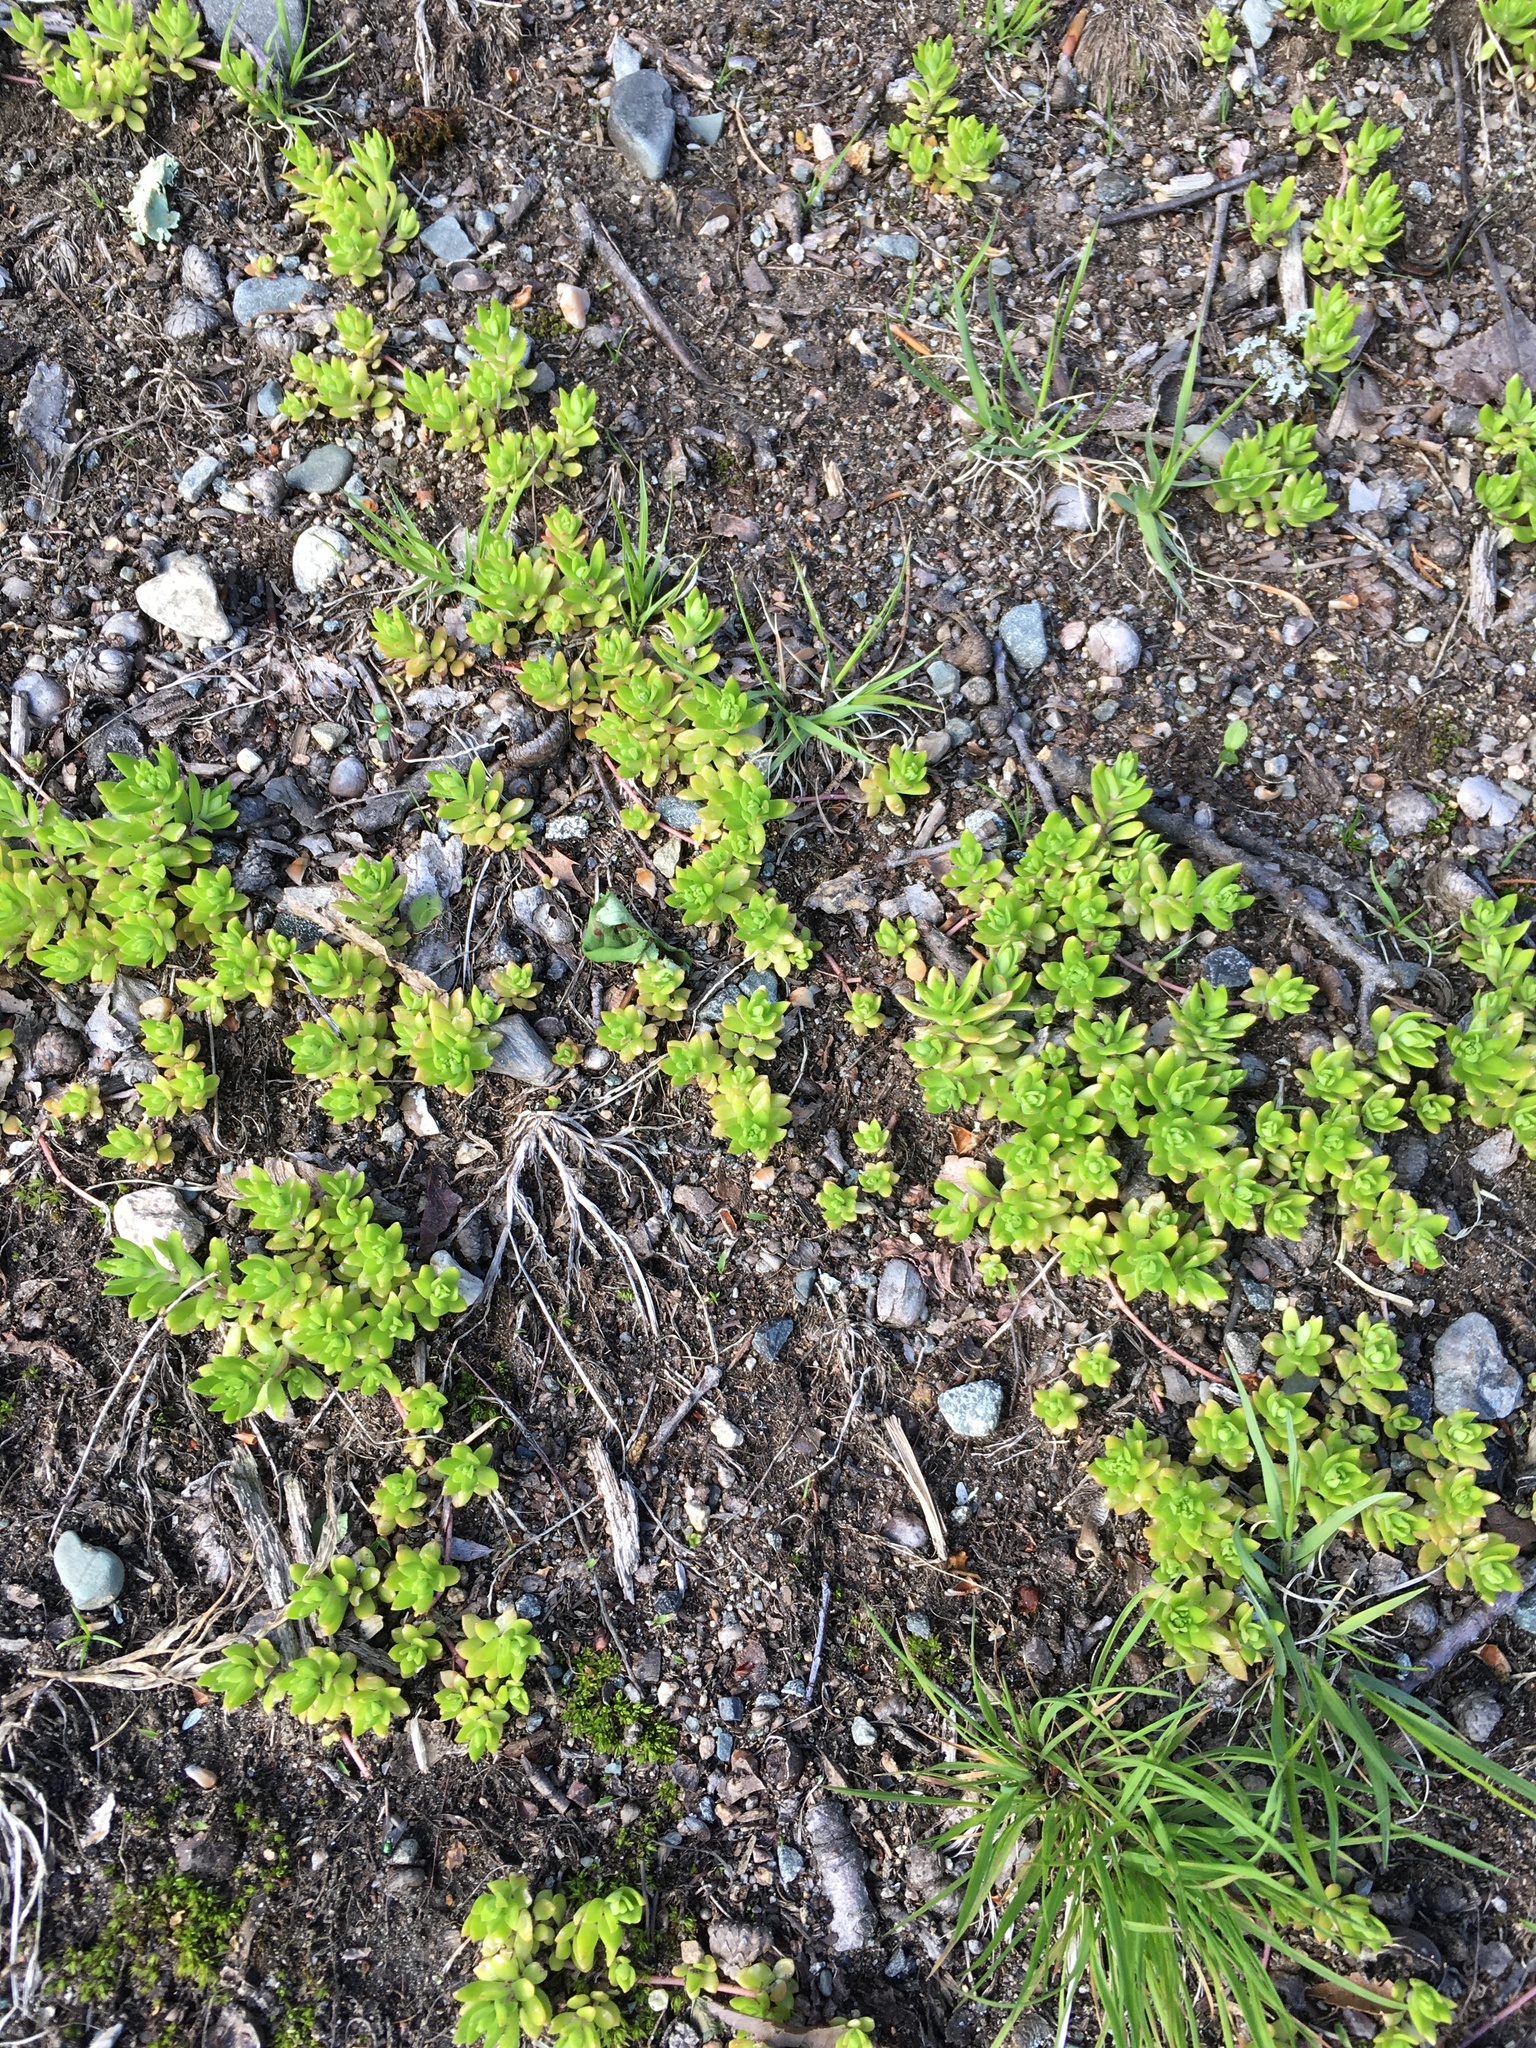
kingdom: Plantae
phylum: Tracheophyta
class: Magnoliopsida
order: Saxifragales
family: Crassulaceae
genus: Sedum
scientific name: Sedum sarmentosum
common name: Stringy stonecrop
